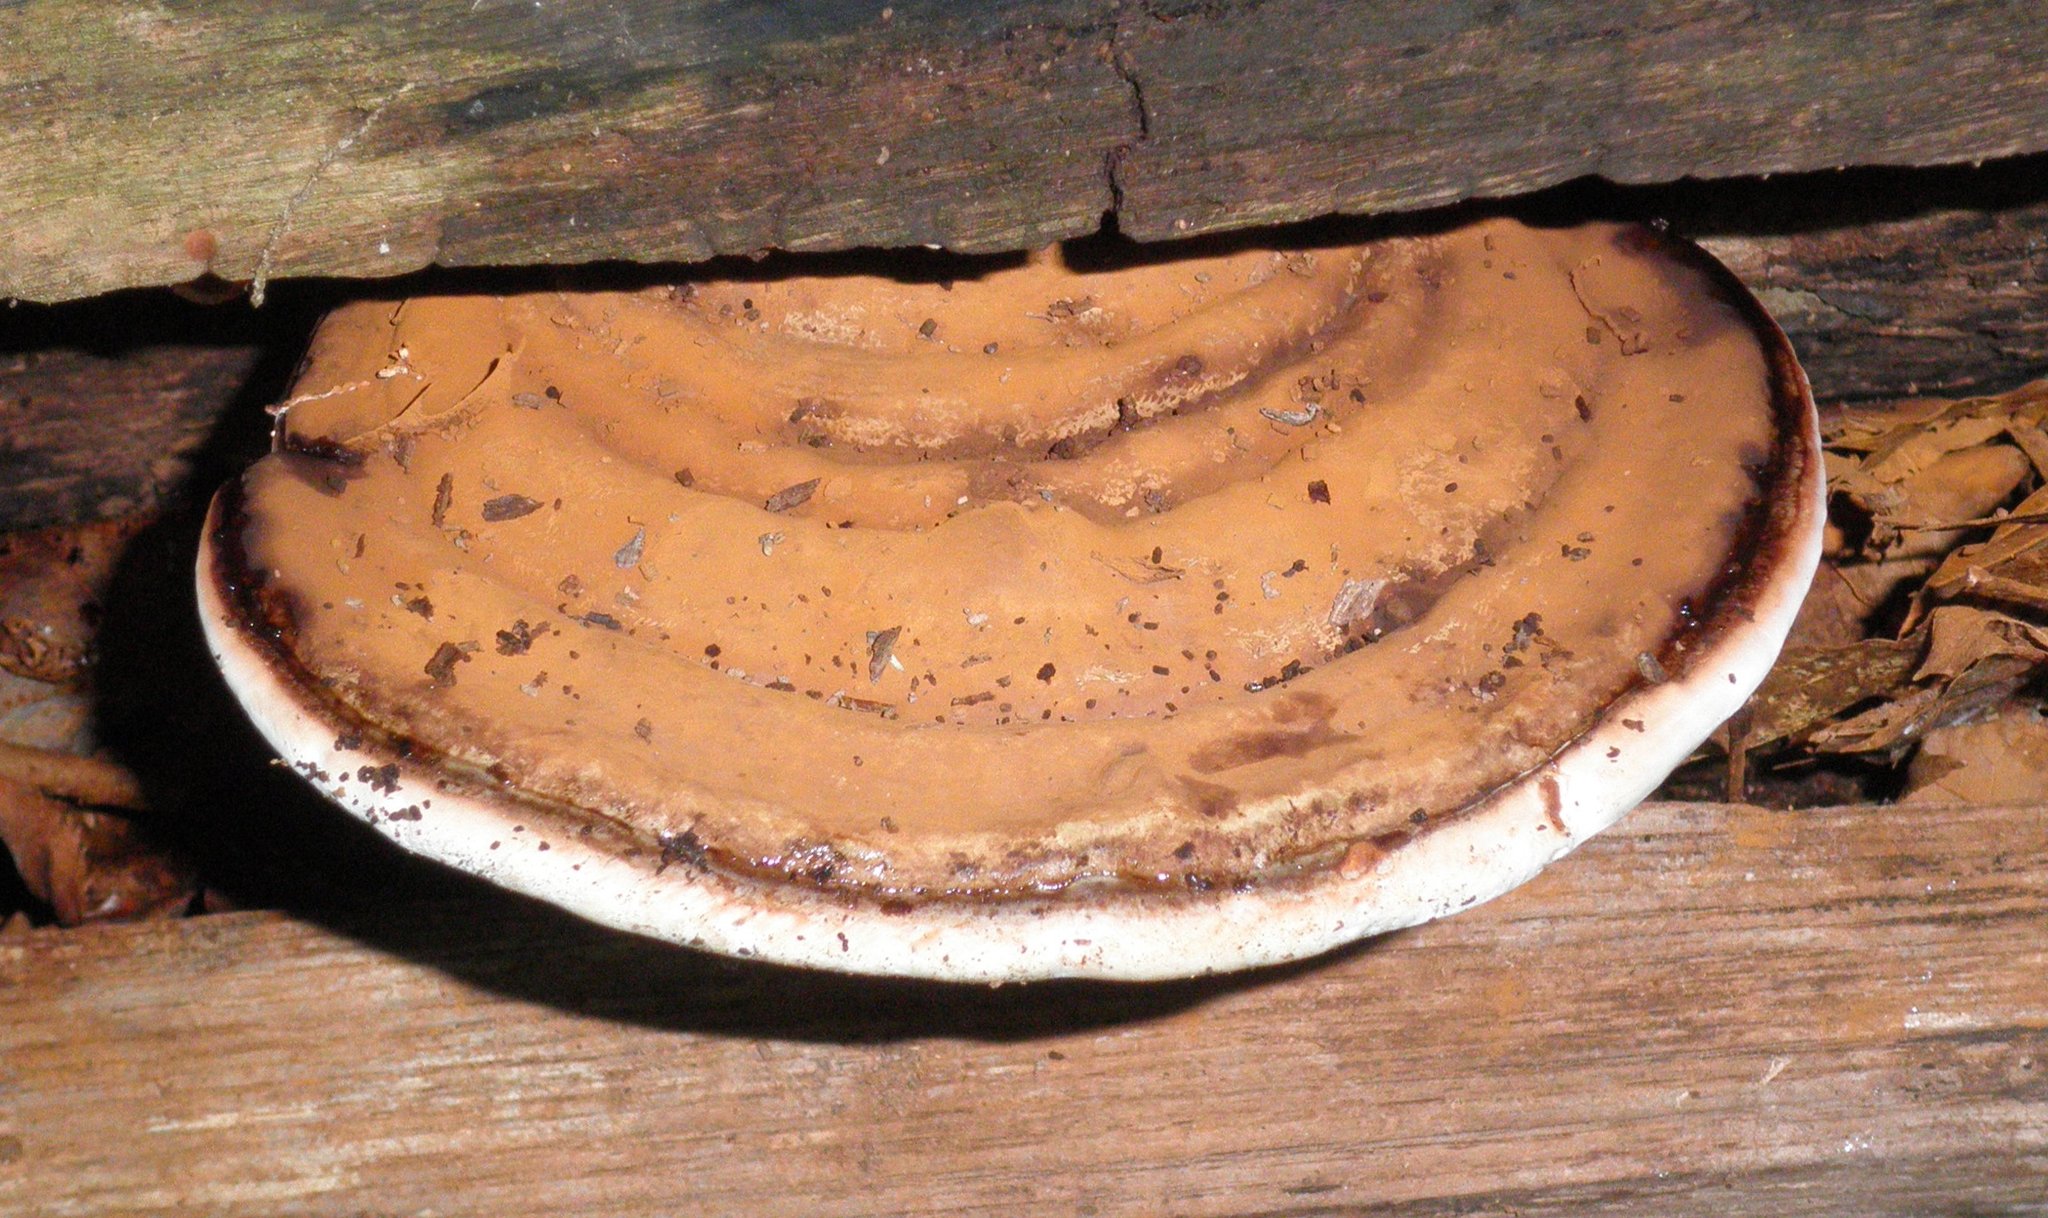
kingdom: Fungi
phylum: Basidiomycota
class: Agaricomycetes
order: Polyporales
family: Polyporaceae
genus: Ganoderma
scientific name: Ganoderma applanatum
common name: Artist's bracket
